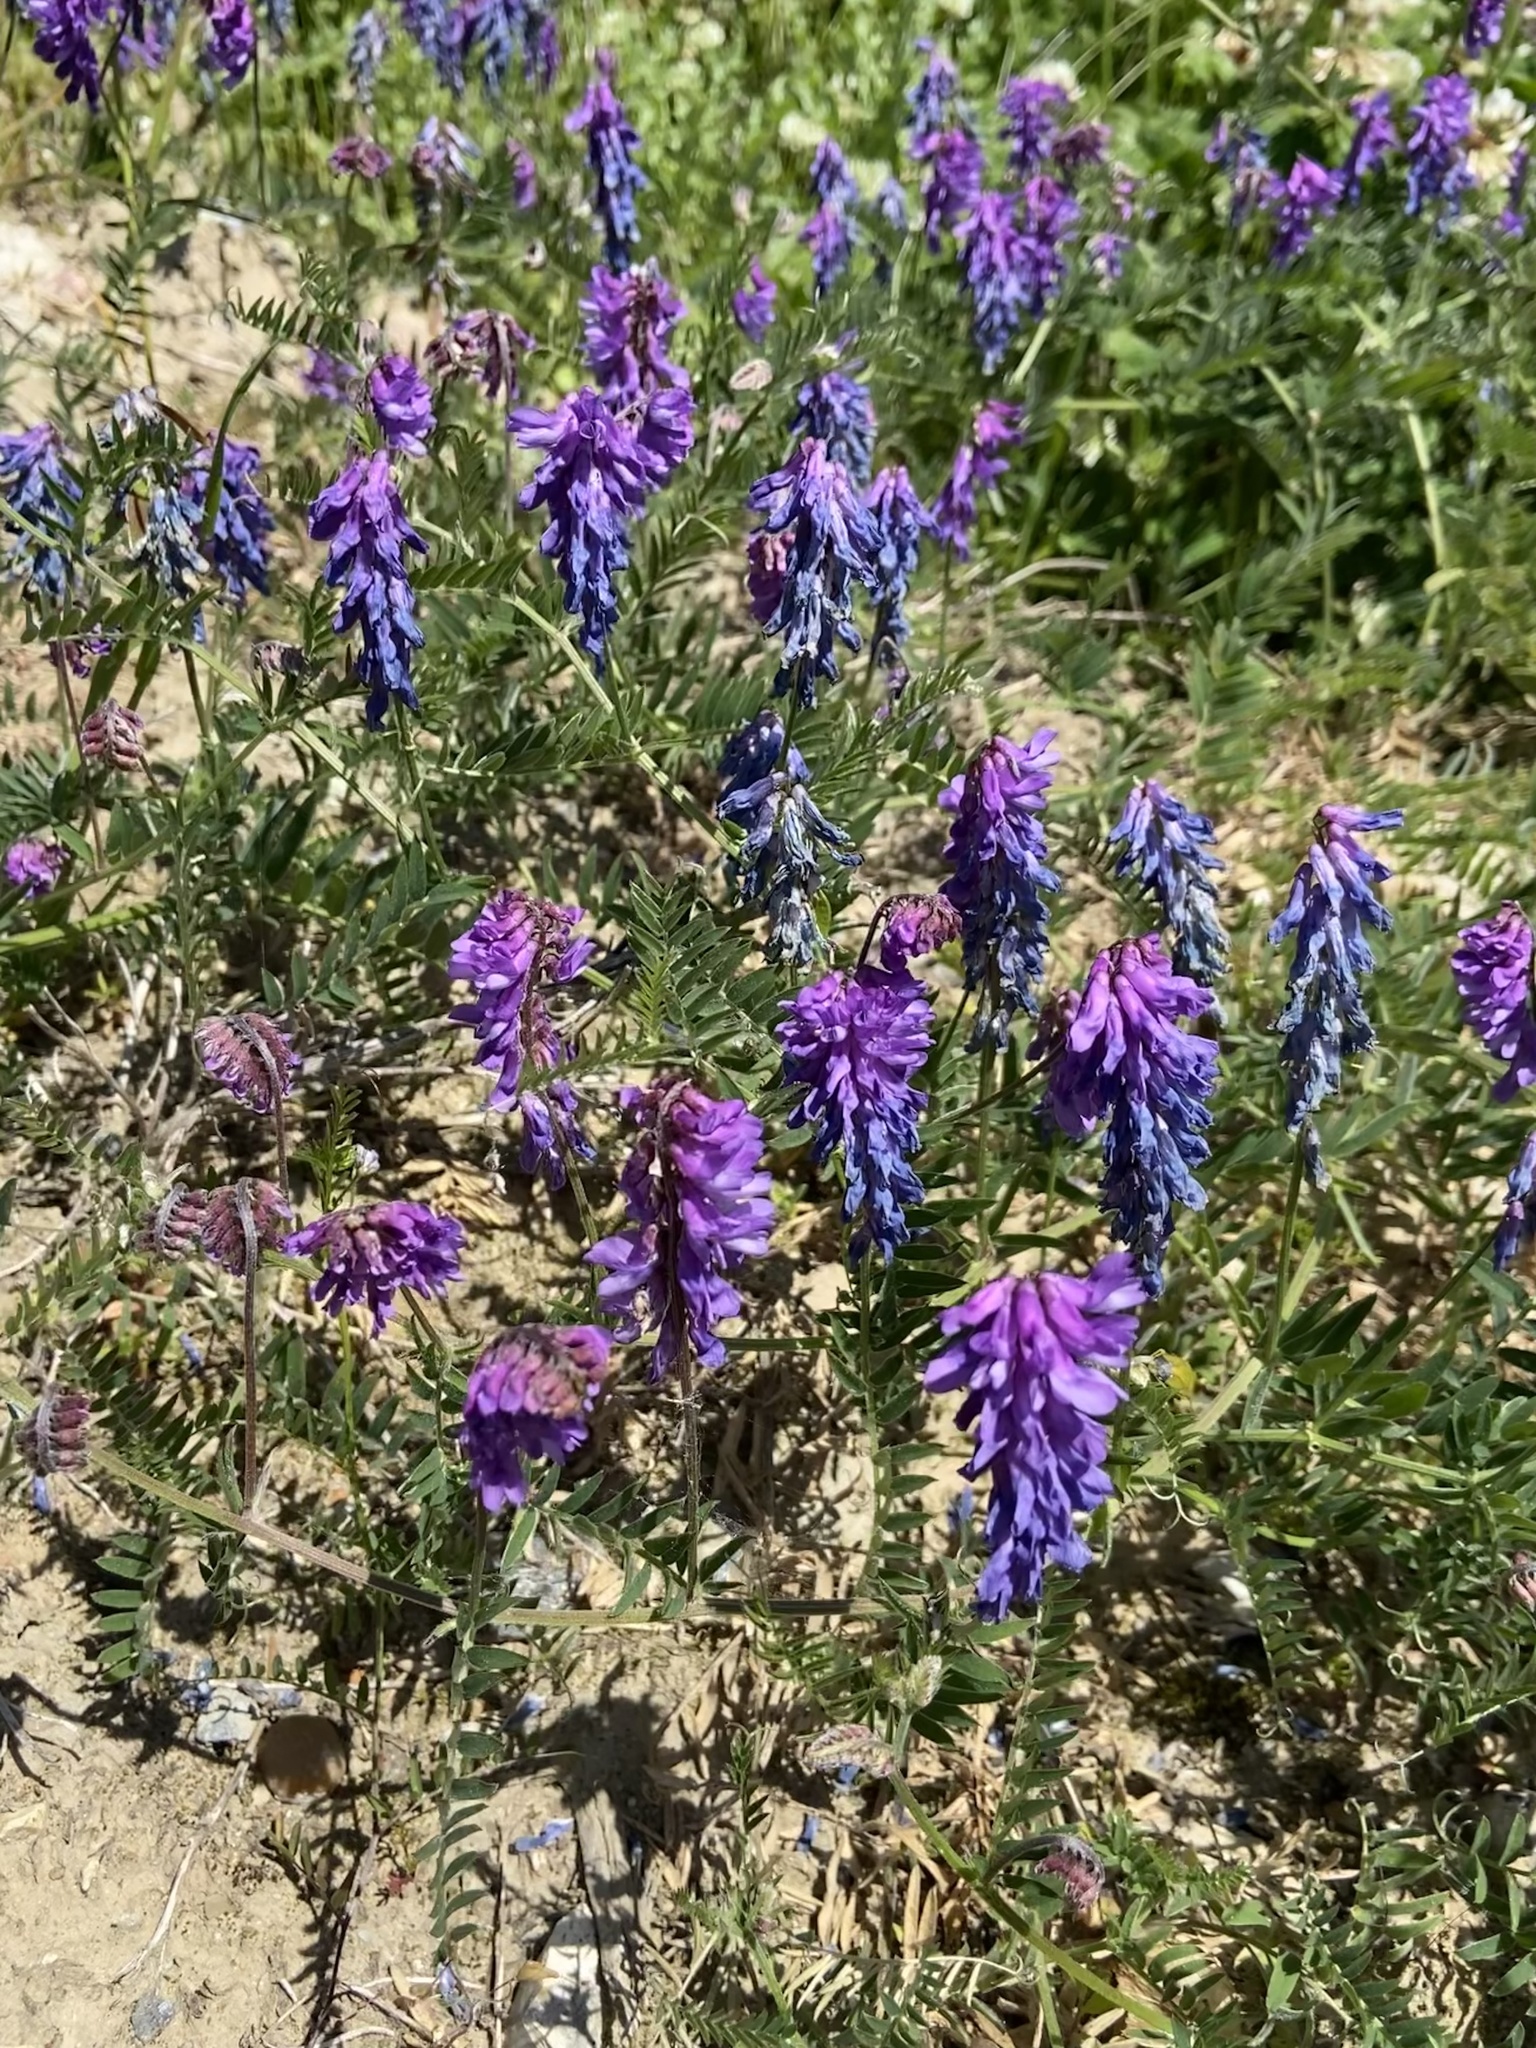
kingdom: Plantae
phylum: Tracheophyta
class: Magnoliopsida
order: Fabales
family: Fabaceae
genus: Vicia
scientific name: Vicia cracca
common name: Bird vetch
